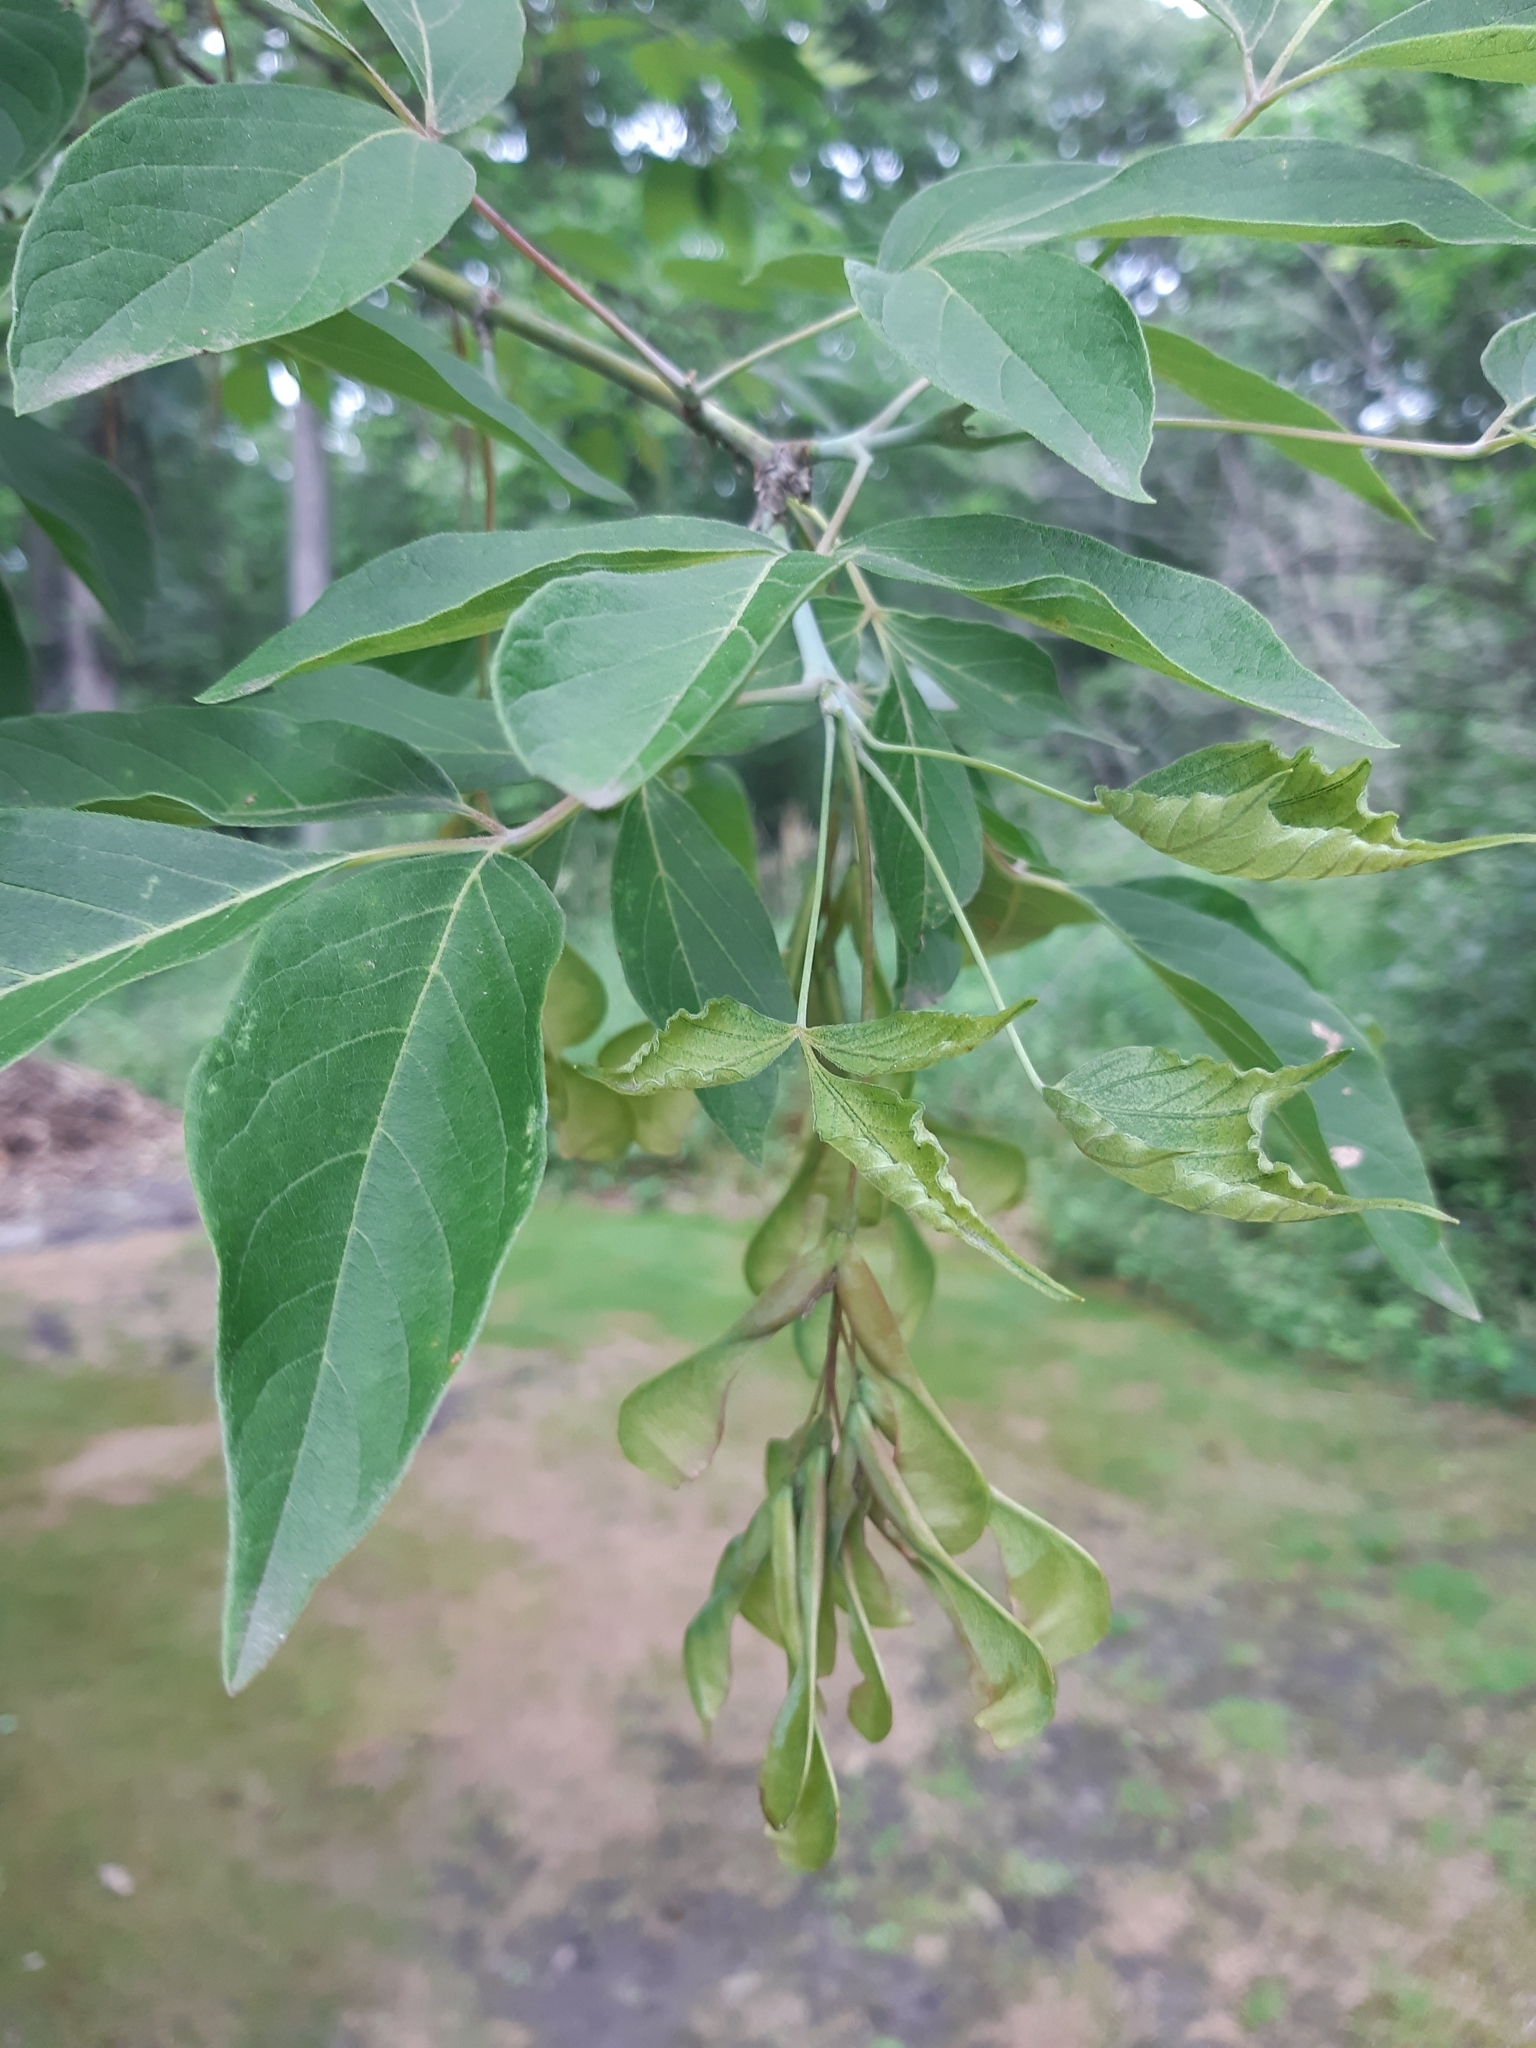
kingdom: Plantae
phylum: Tracheophyta
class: Magnoliopsida
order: Sapindales
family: Sapindaceae
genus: Acer
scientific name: Acer negundo
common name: Ashleaf maple
